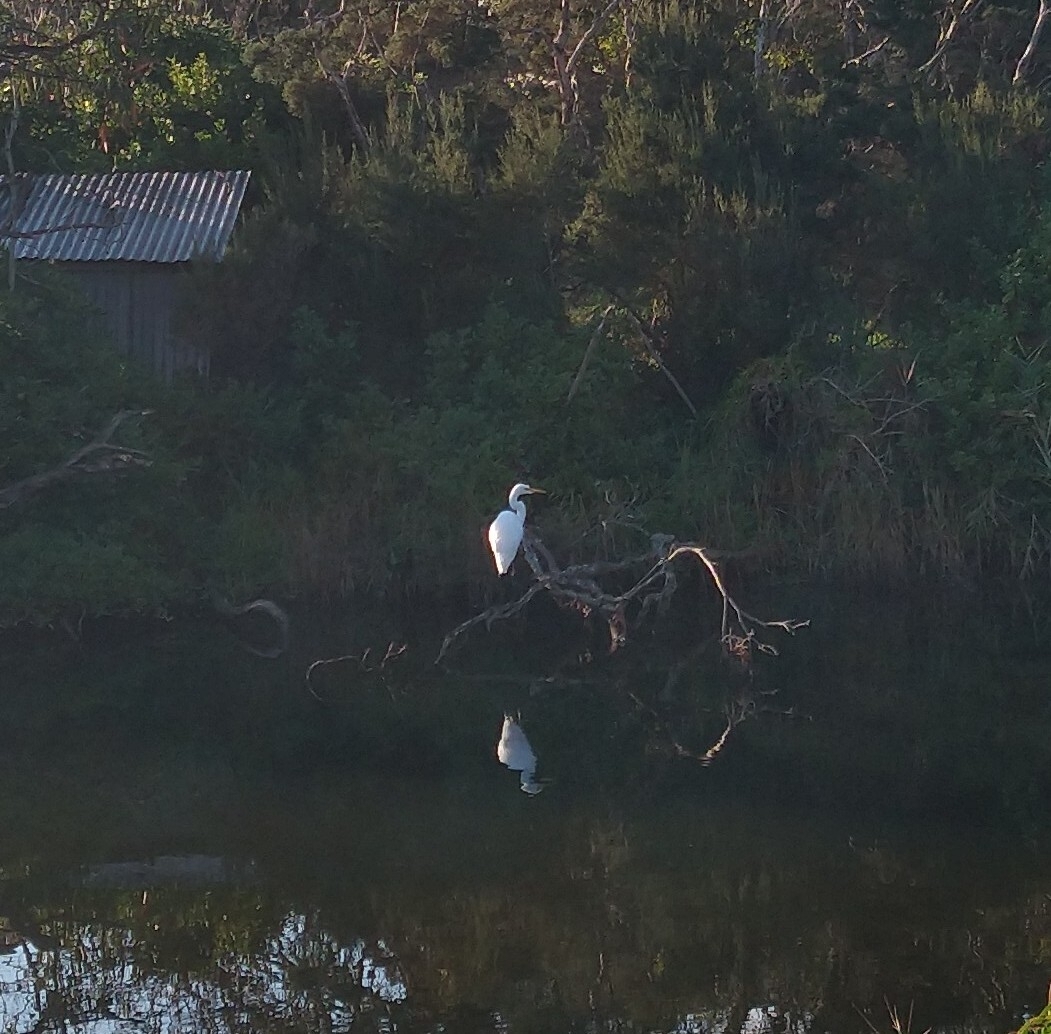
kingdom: Animalia
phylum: Chordata
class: Aves
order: Pelecaniformes
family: Ardeidae
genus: Ardea
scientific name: Ardea modesta
